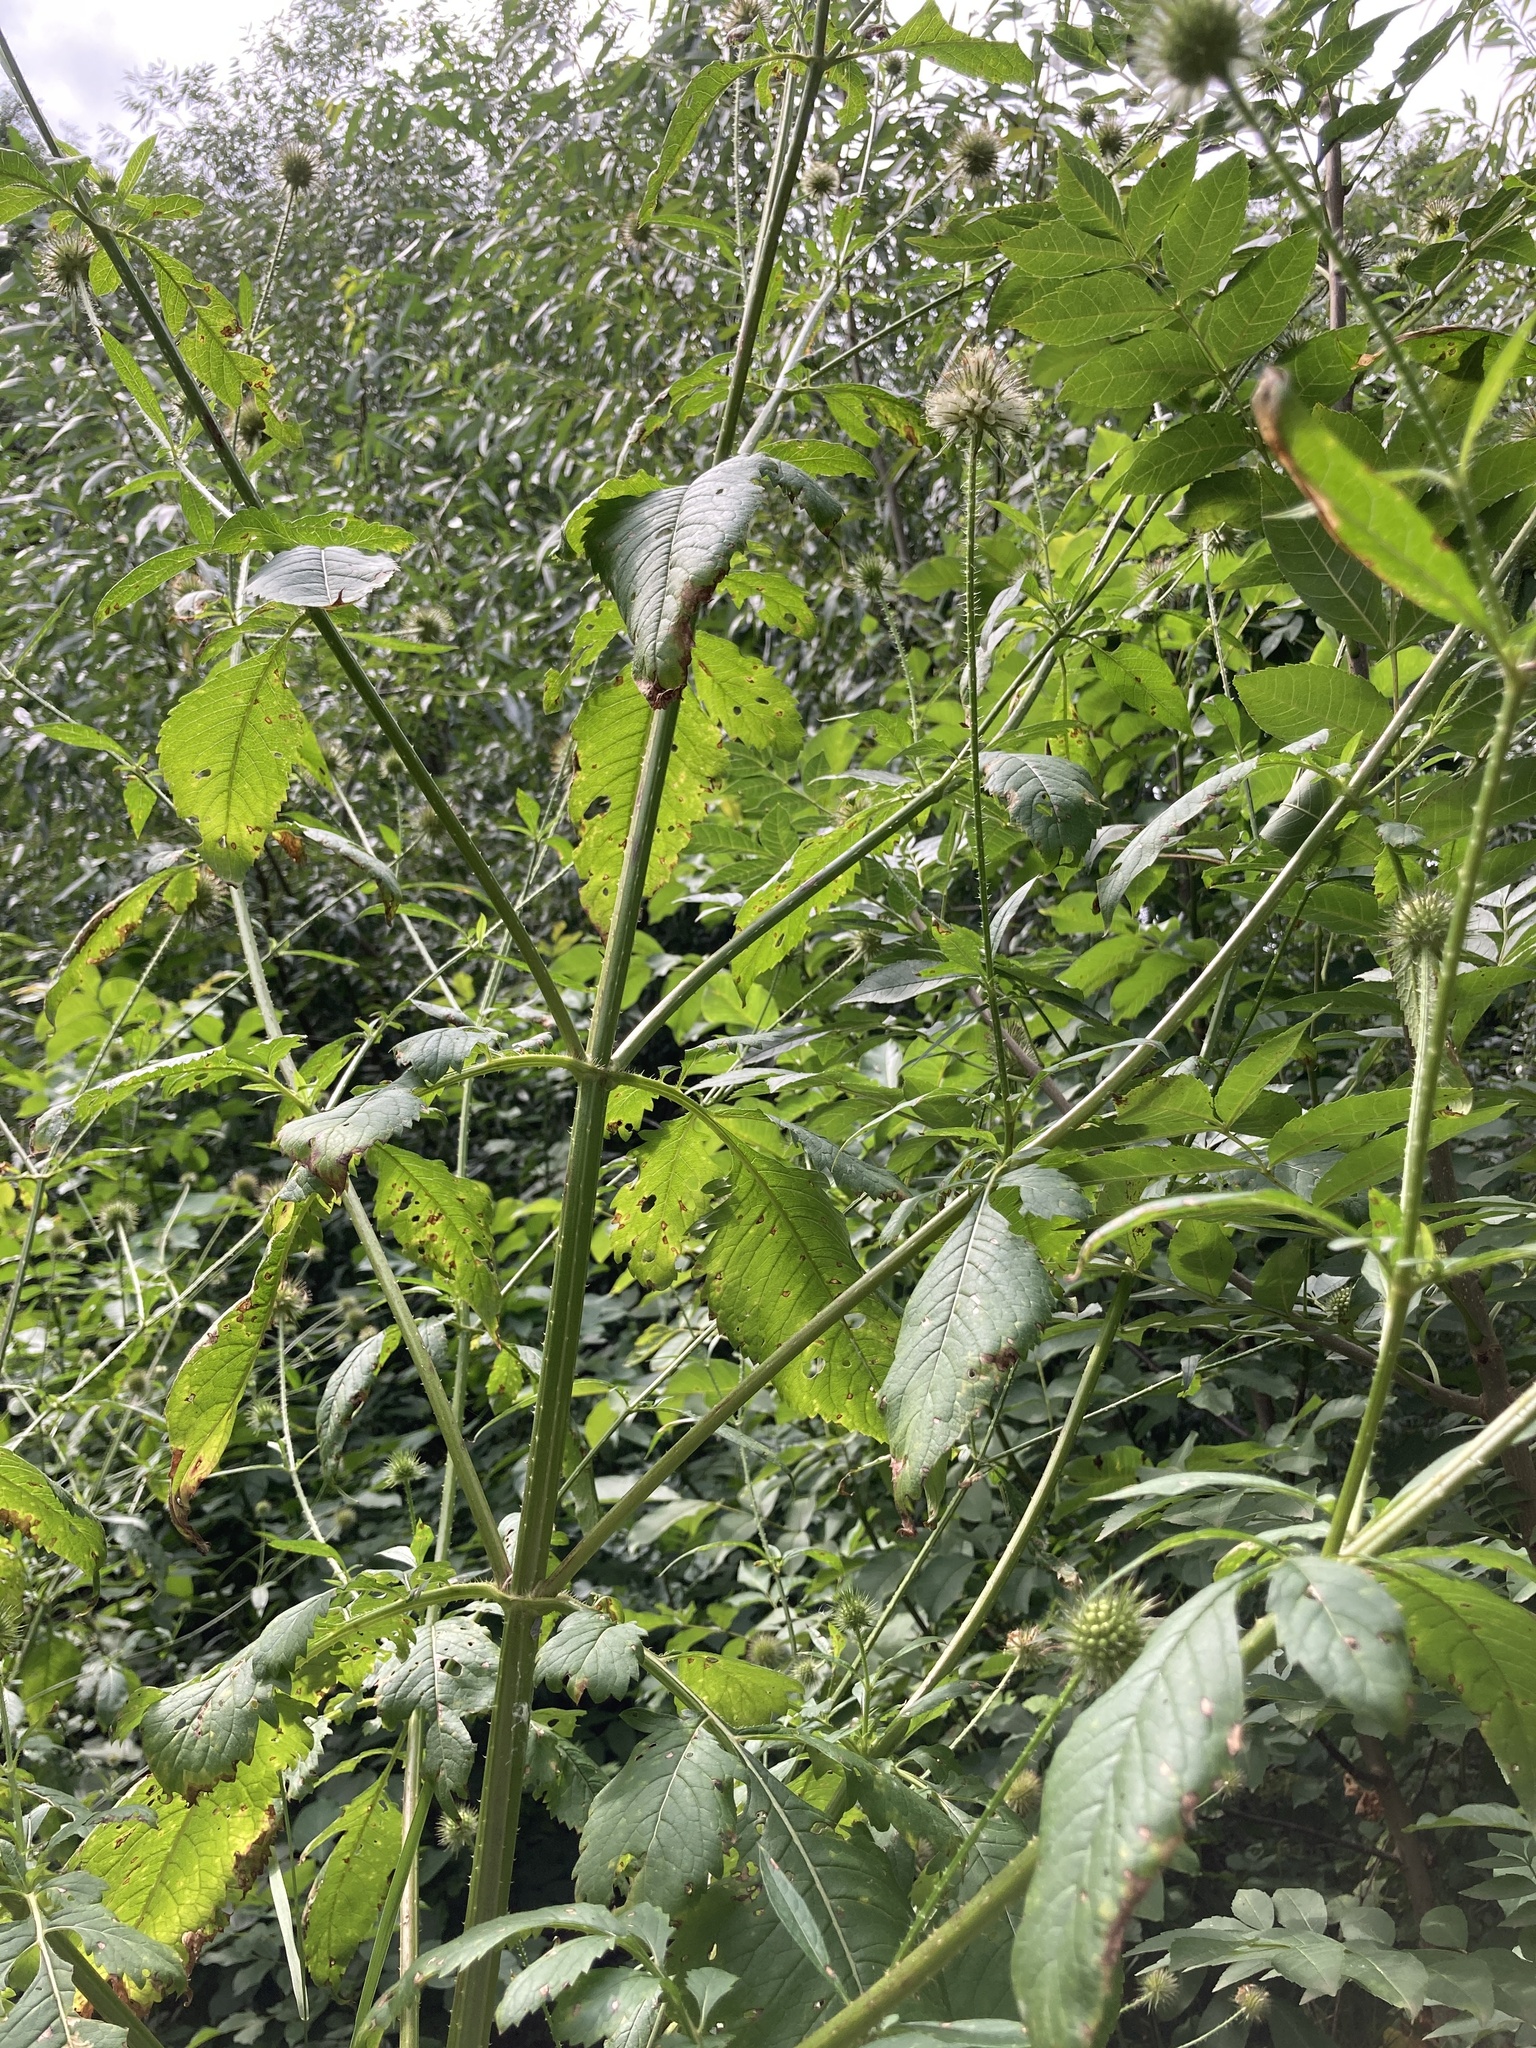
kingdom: Plantae
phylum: Tracheophyta
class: Magnoliopsida
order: Dipsacales
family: Caprifoliaceae
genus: Dipsacus
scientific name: Dipsacus strigosus
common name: Yellow-flowered teasel
